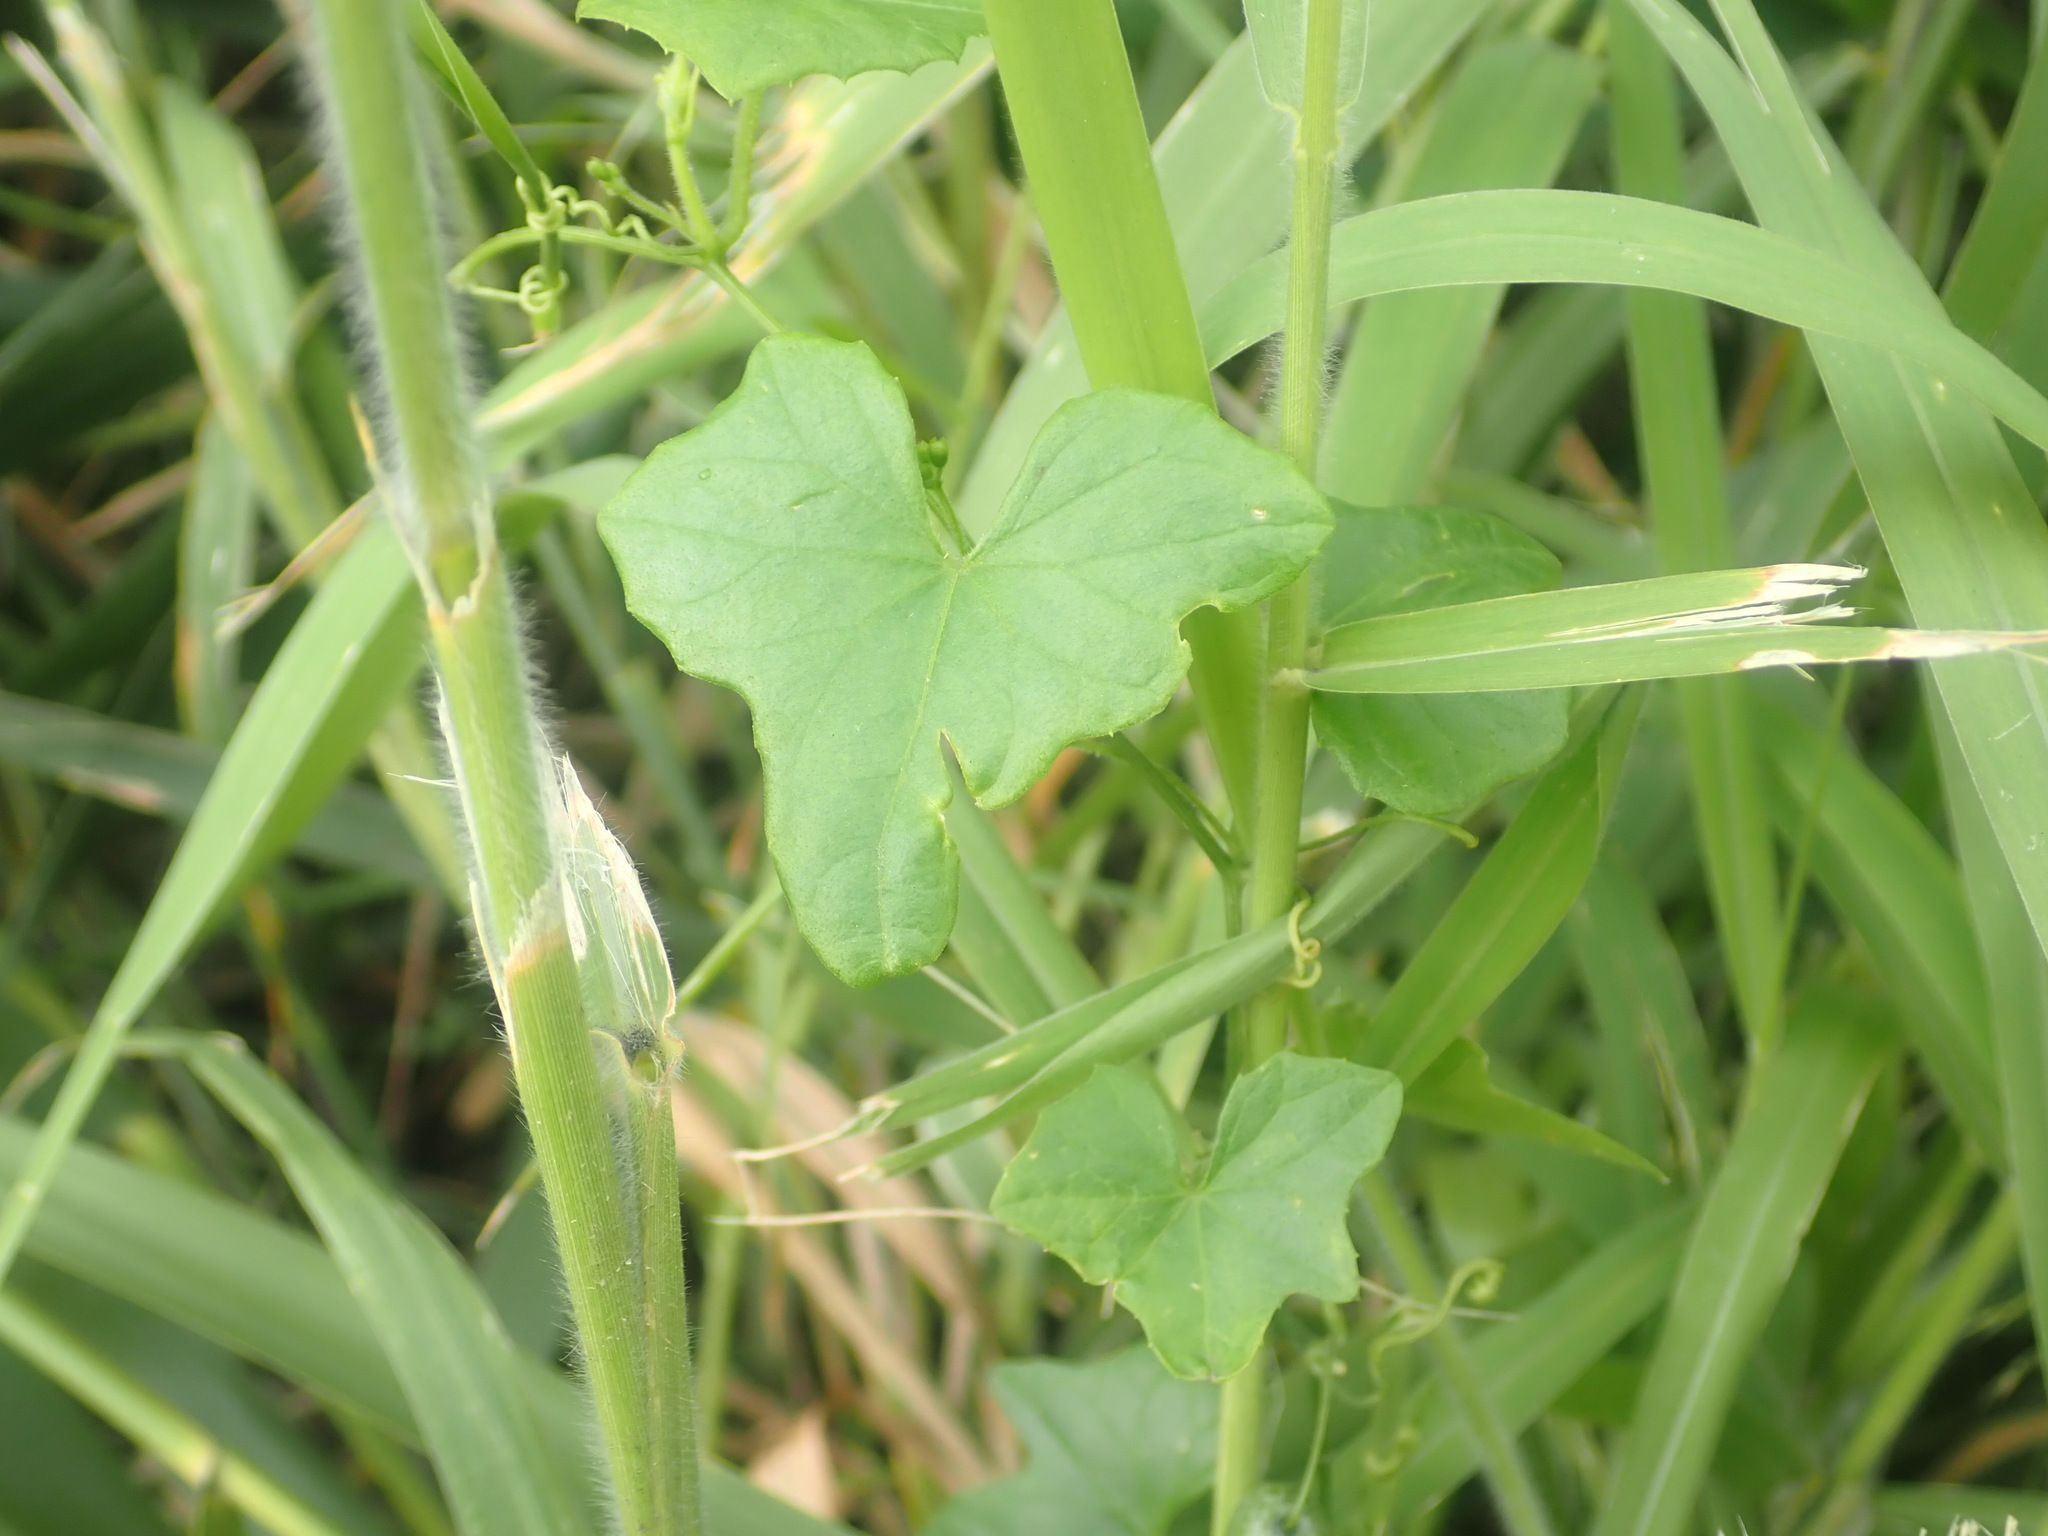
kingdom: Plantae
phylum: Tracheophyta
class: Magnoliopsida
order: Cucurbitales
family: Cucurbitaceae
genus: Melothria
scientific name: Melothria pendula
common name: Creeping-cucumber
